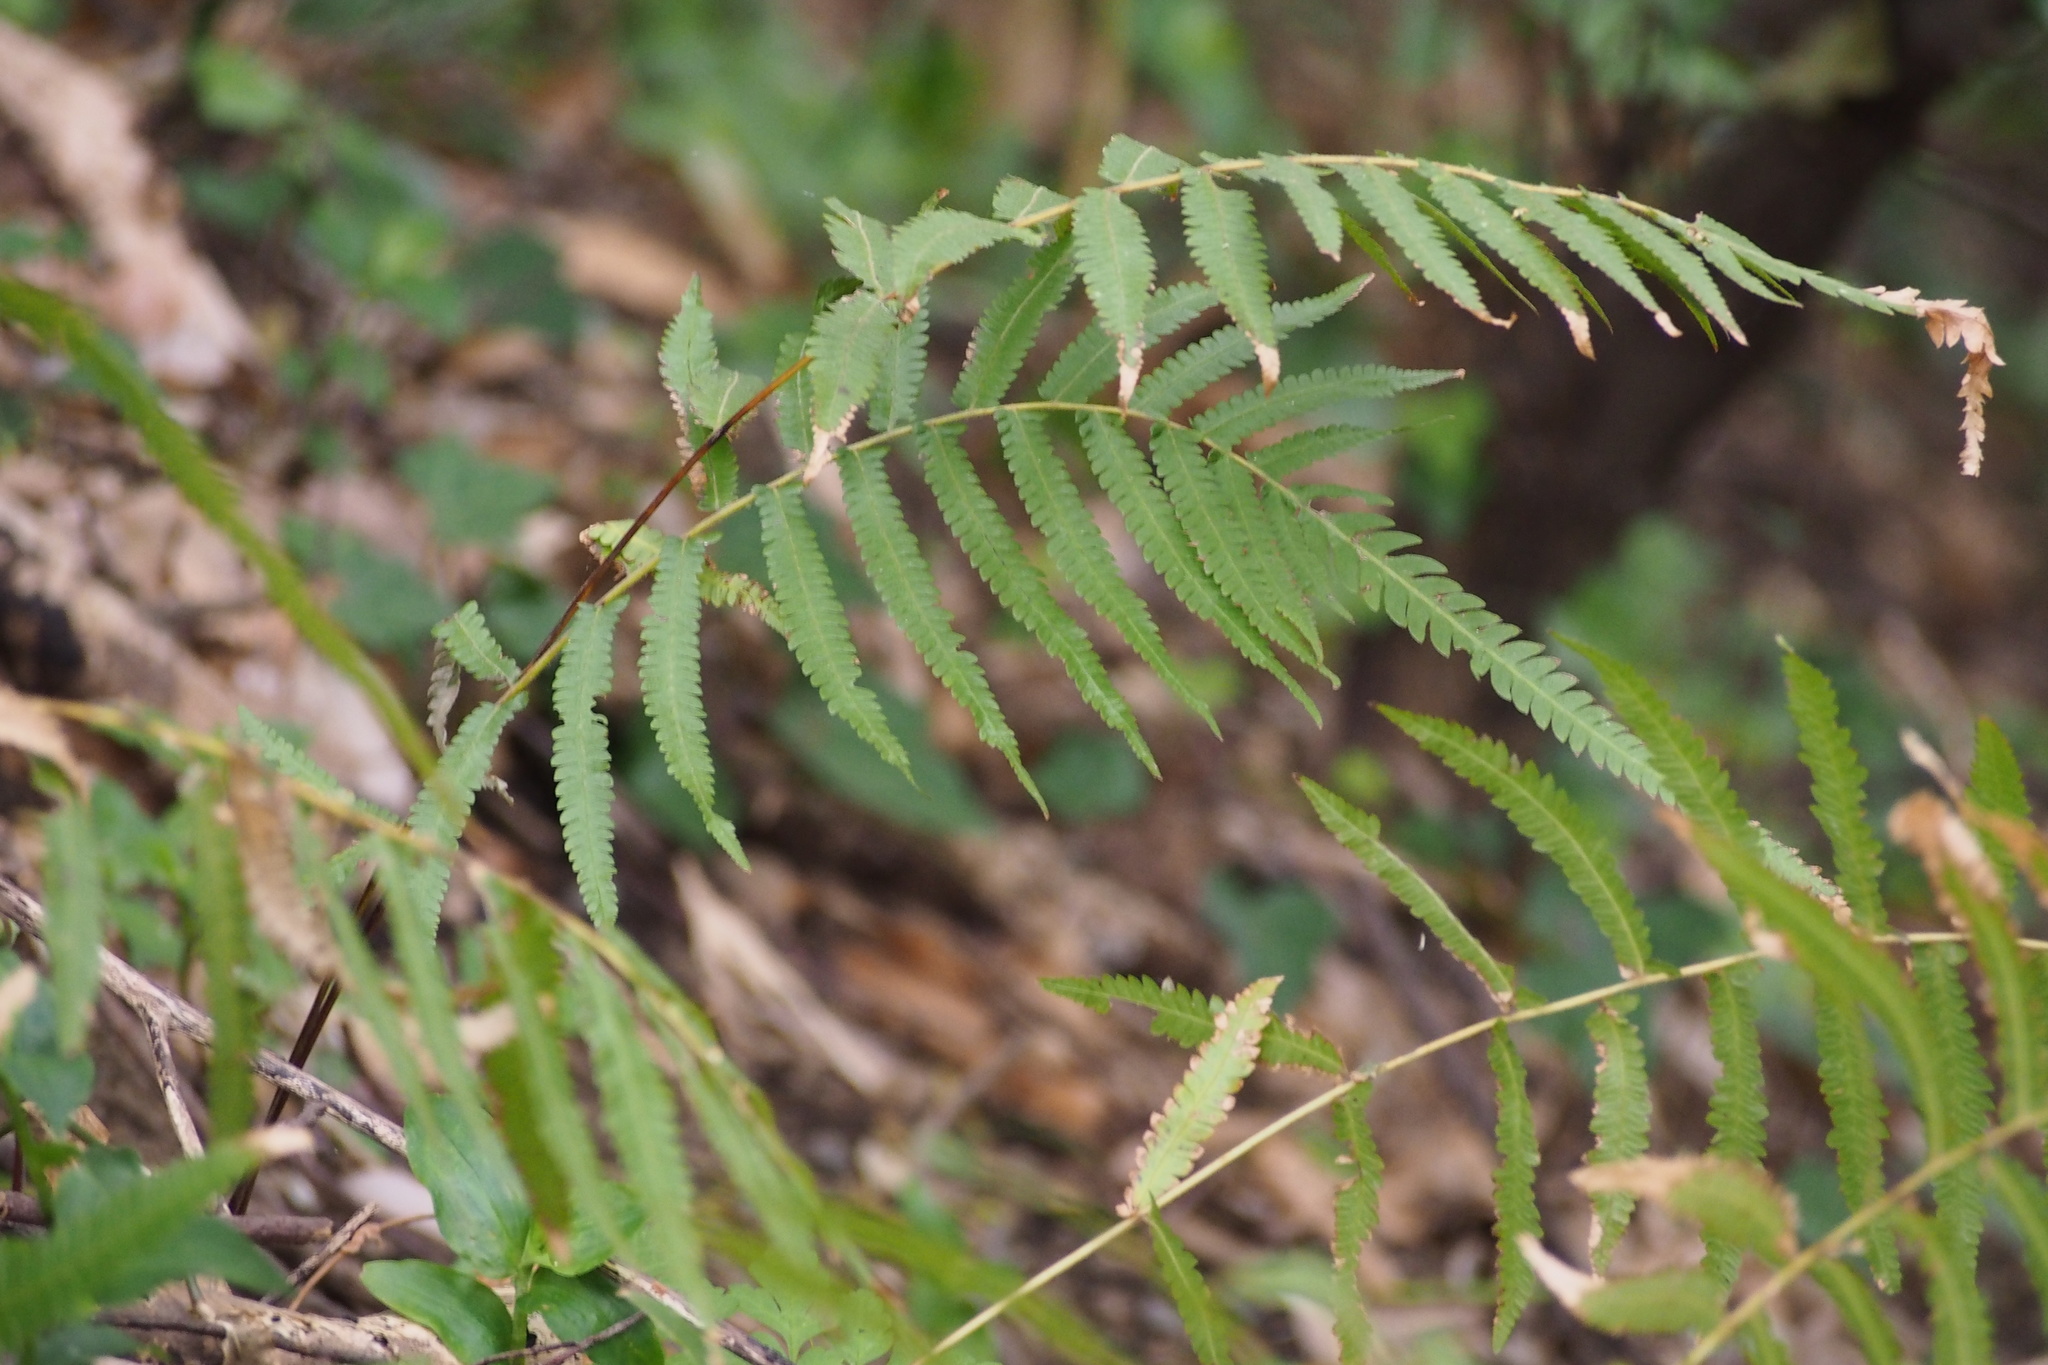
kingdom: Plantae
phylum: Tracheophyta
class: Polypodiopsida
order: Polypodiales
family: Thelypteridaceae
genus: Christella
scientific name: Christella acuminata
